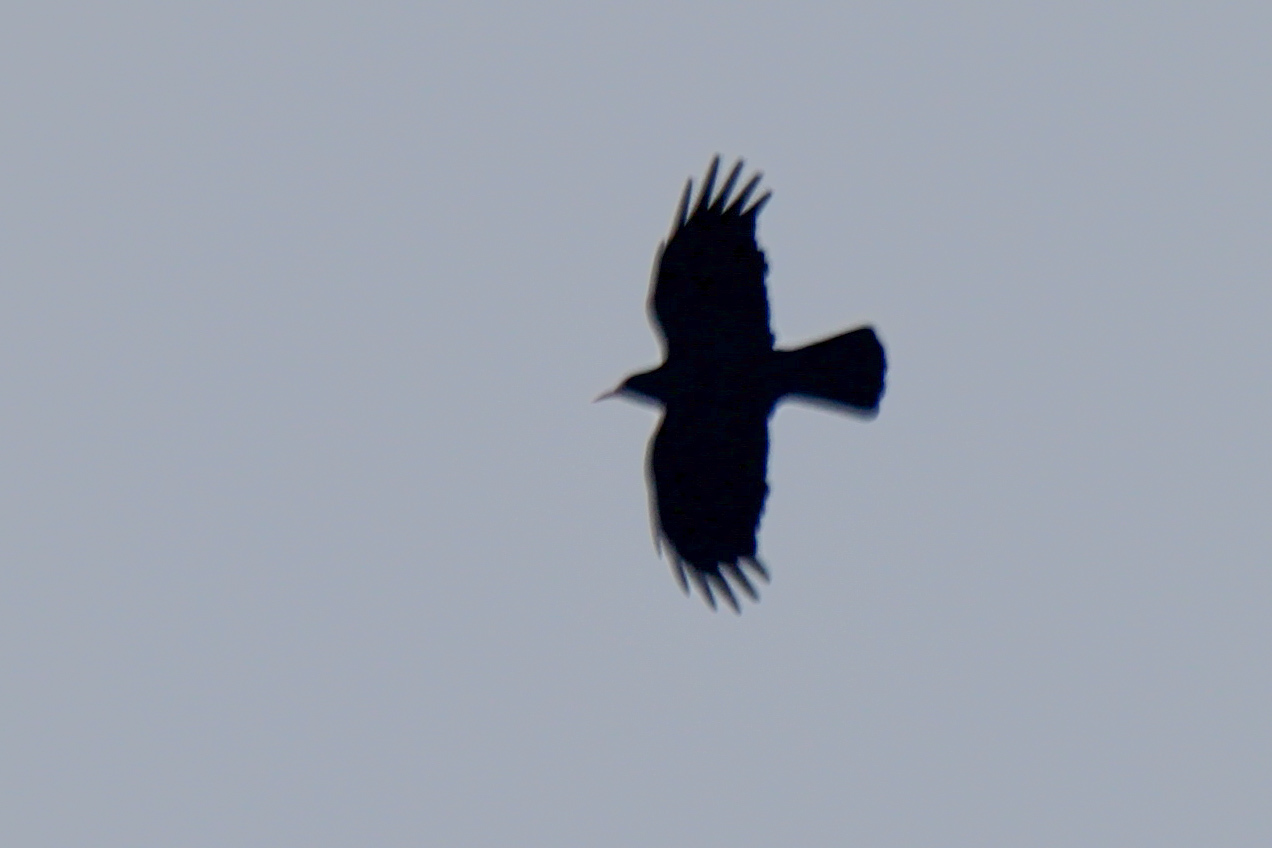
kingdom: Animalia
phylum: Chordata
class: Aves
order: Passeriformes
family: Corvidae
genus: Pyrrhocorax
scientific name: Pyrrhocorax pyrrhocorax
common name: Red-billed chough
